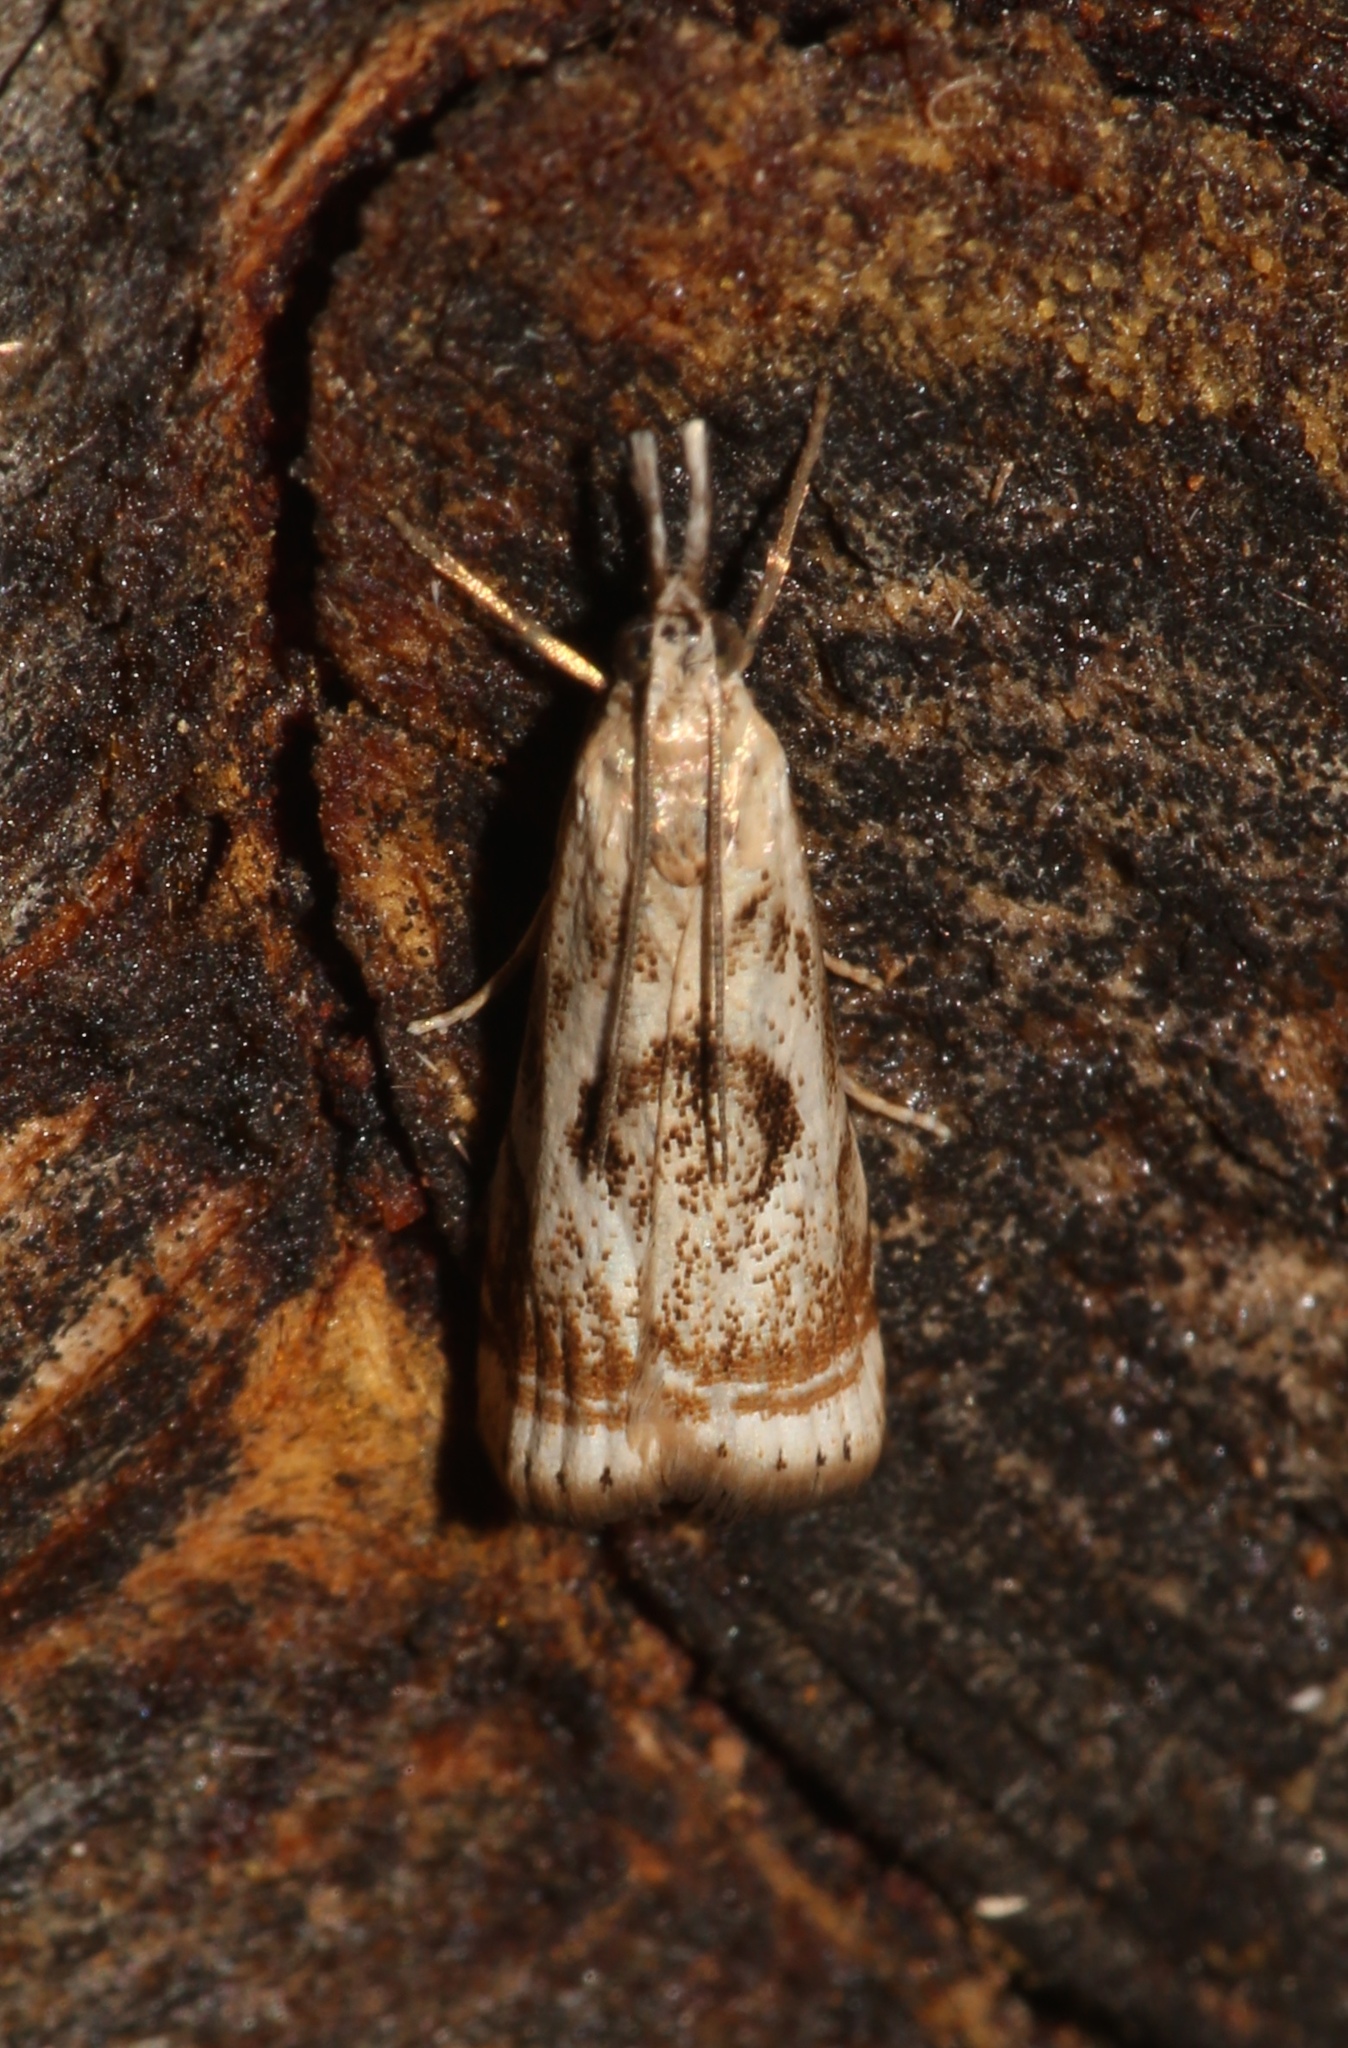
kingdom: Animalia
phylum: Arthropoda
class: Insecta
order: Lepidoptera
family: Crambidae
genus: Microcrambus
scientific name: Microcrambus elegans
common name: Elegant grass-veneer
